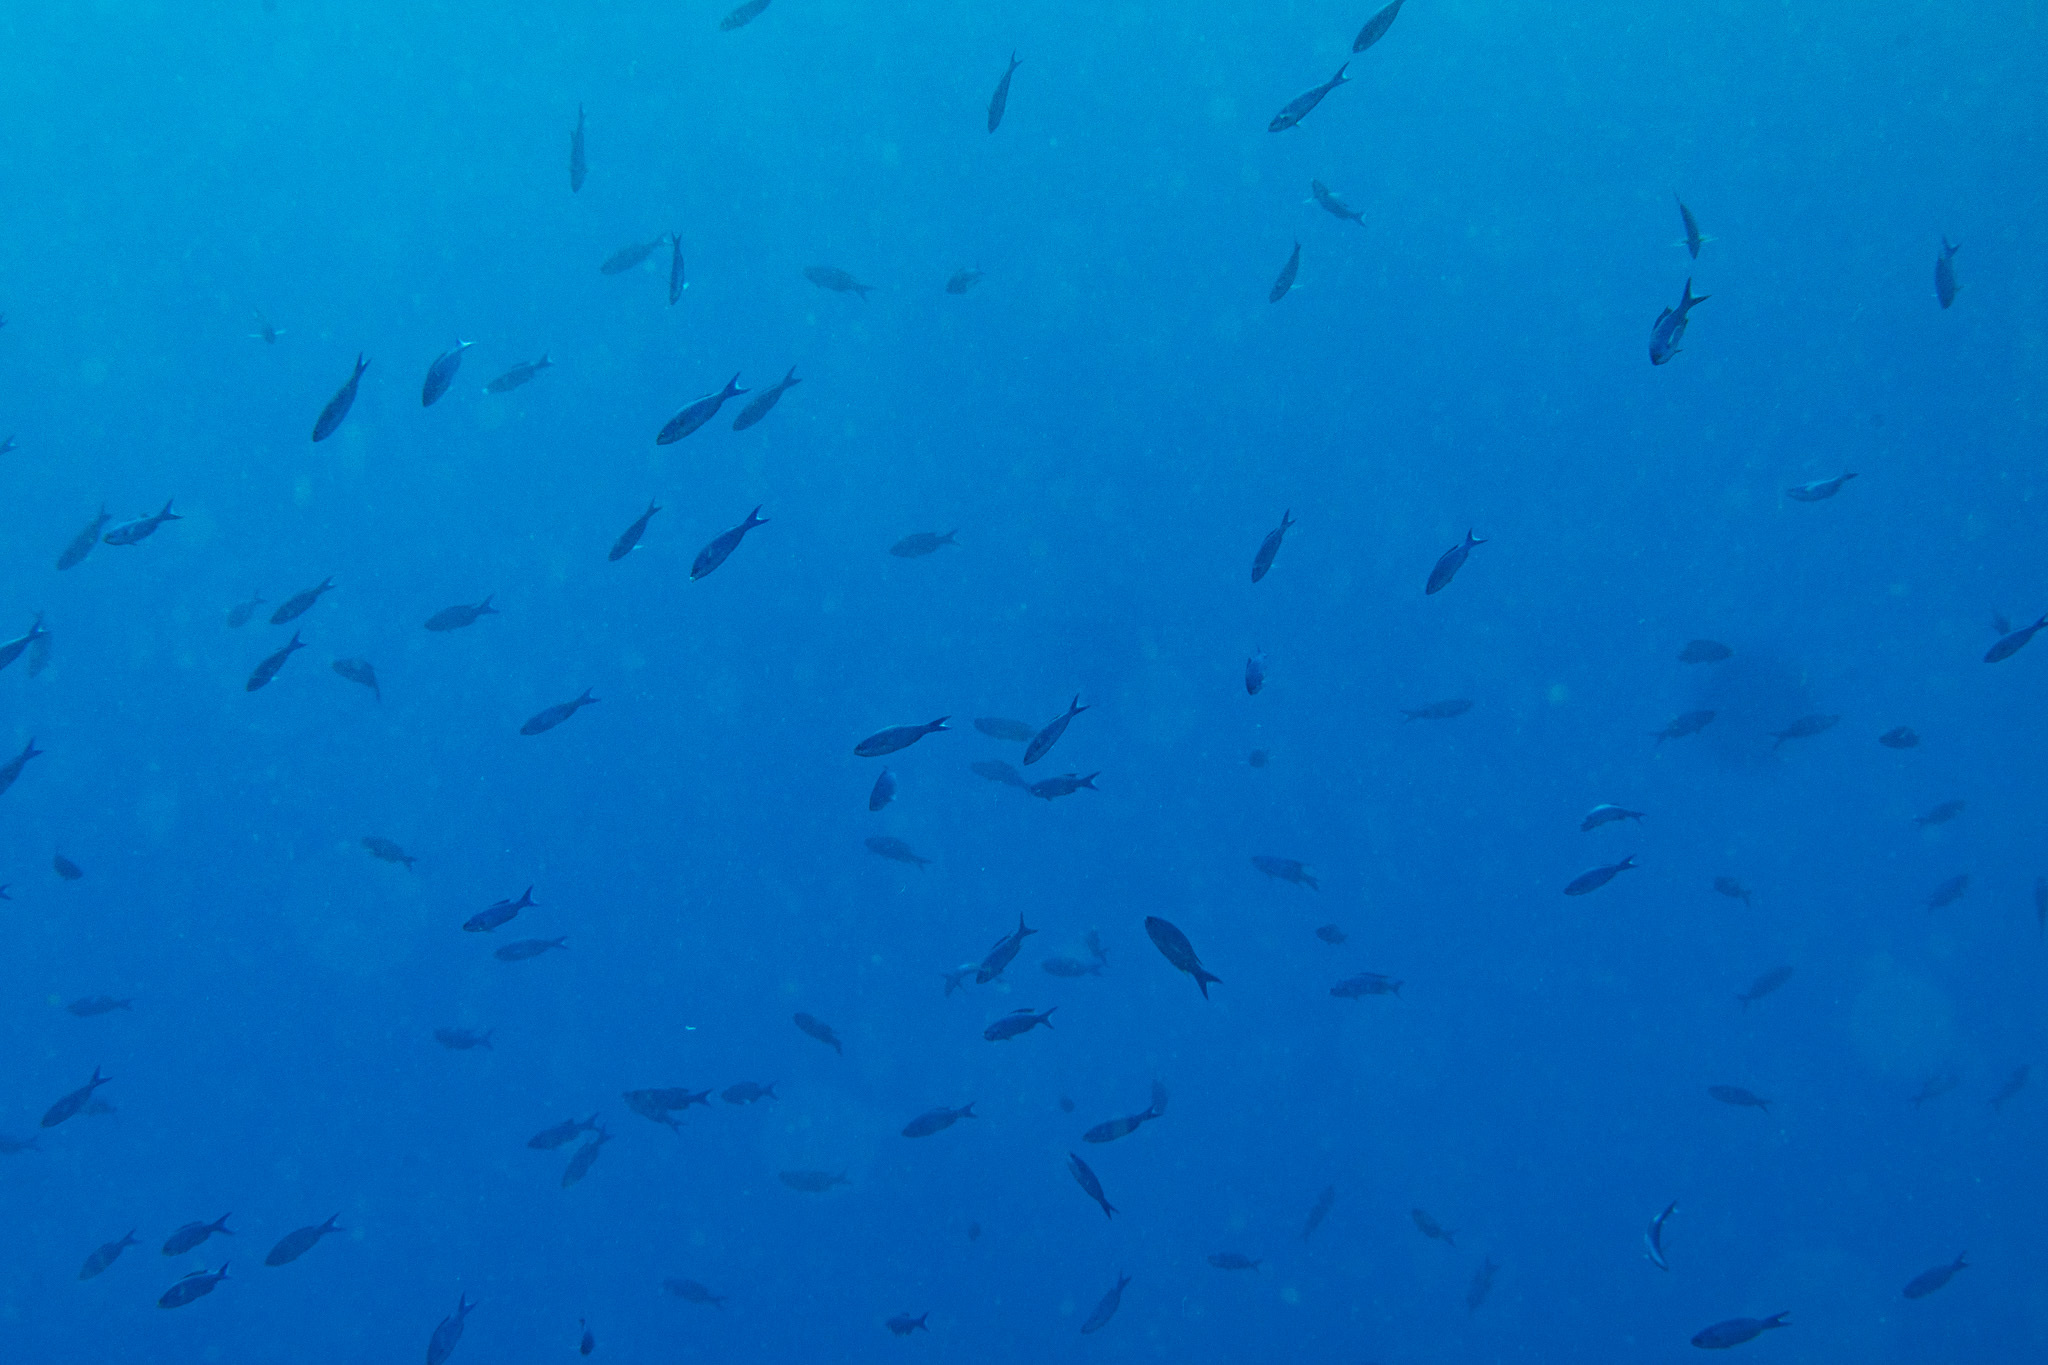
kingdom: Animalia
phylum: Chordata
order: Perciformes
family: Labridae
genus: Bodianus
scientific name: Bodianus
